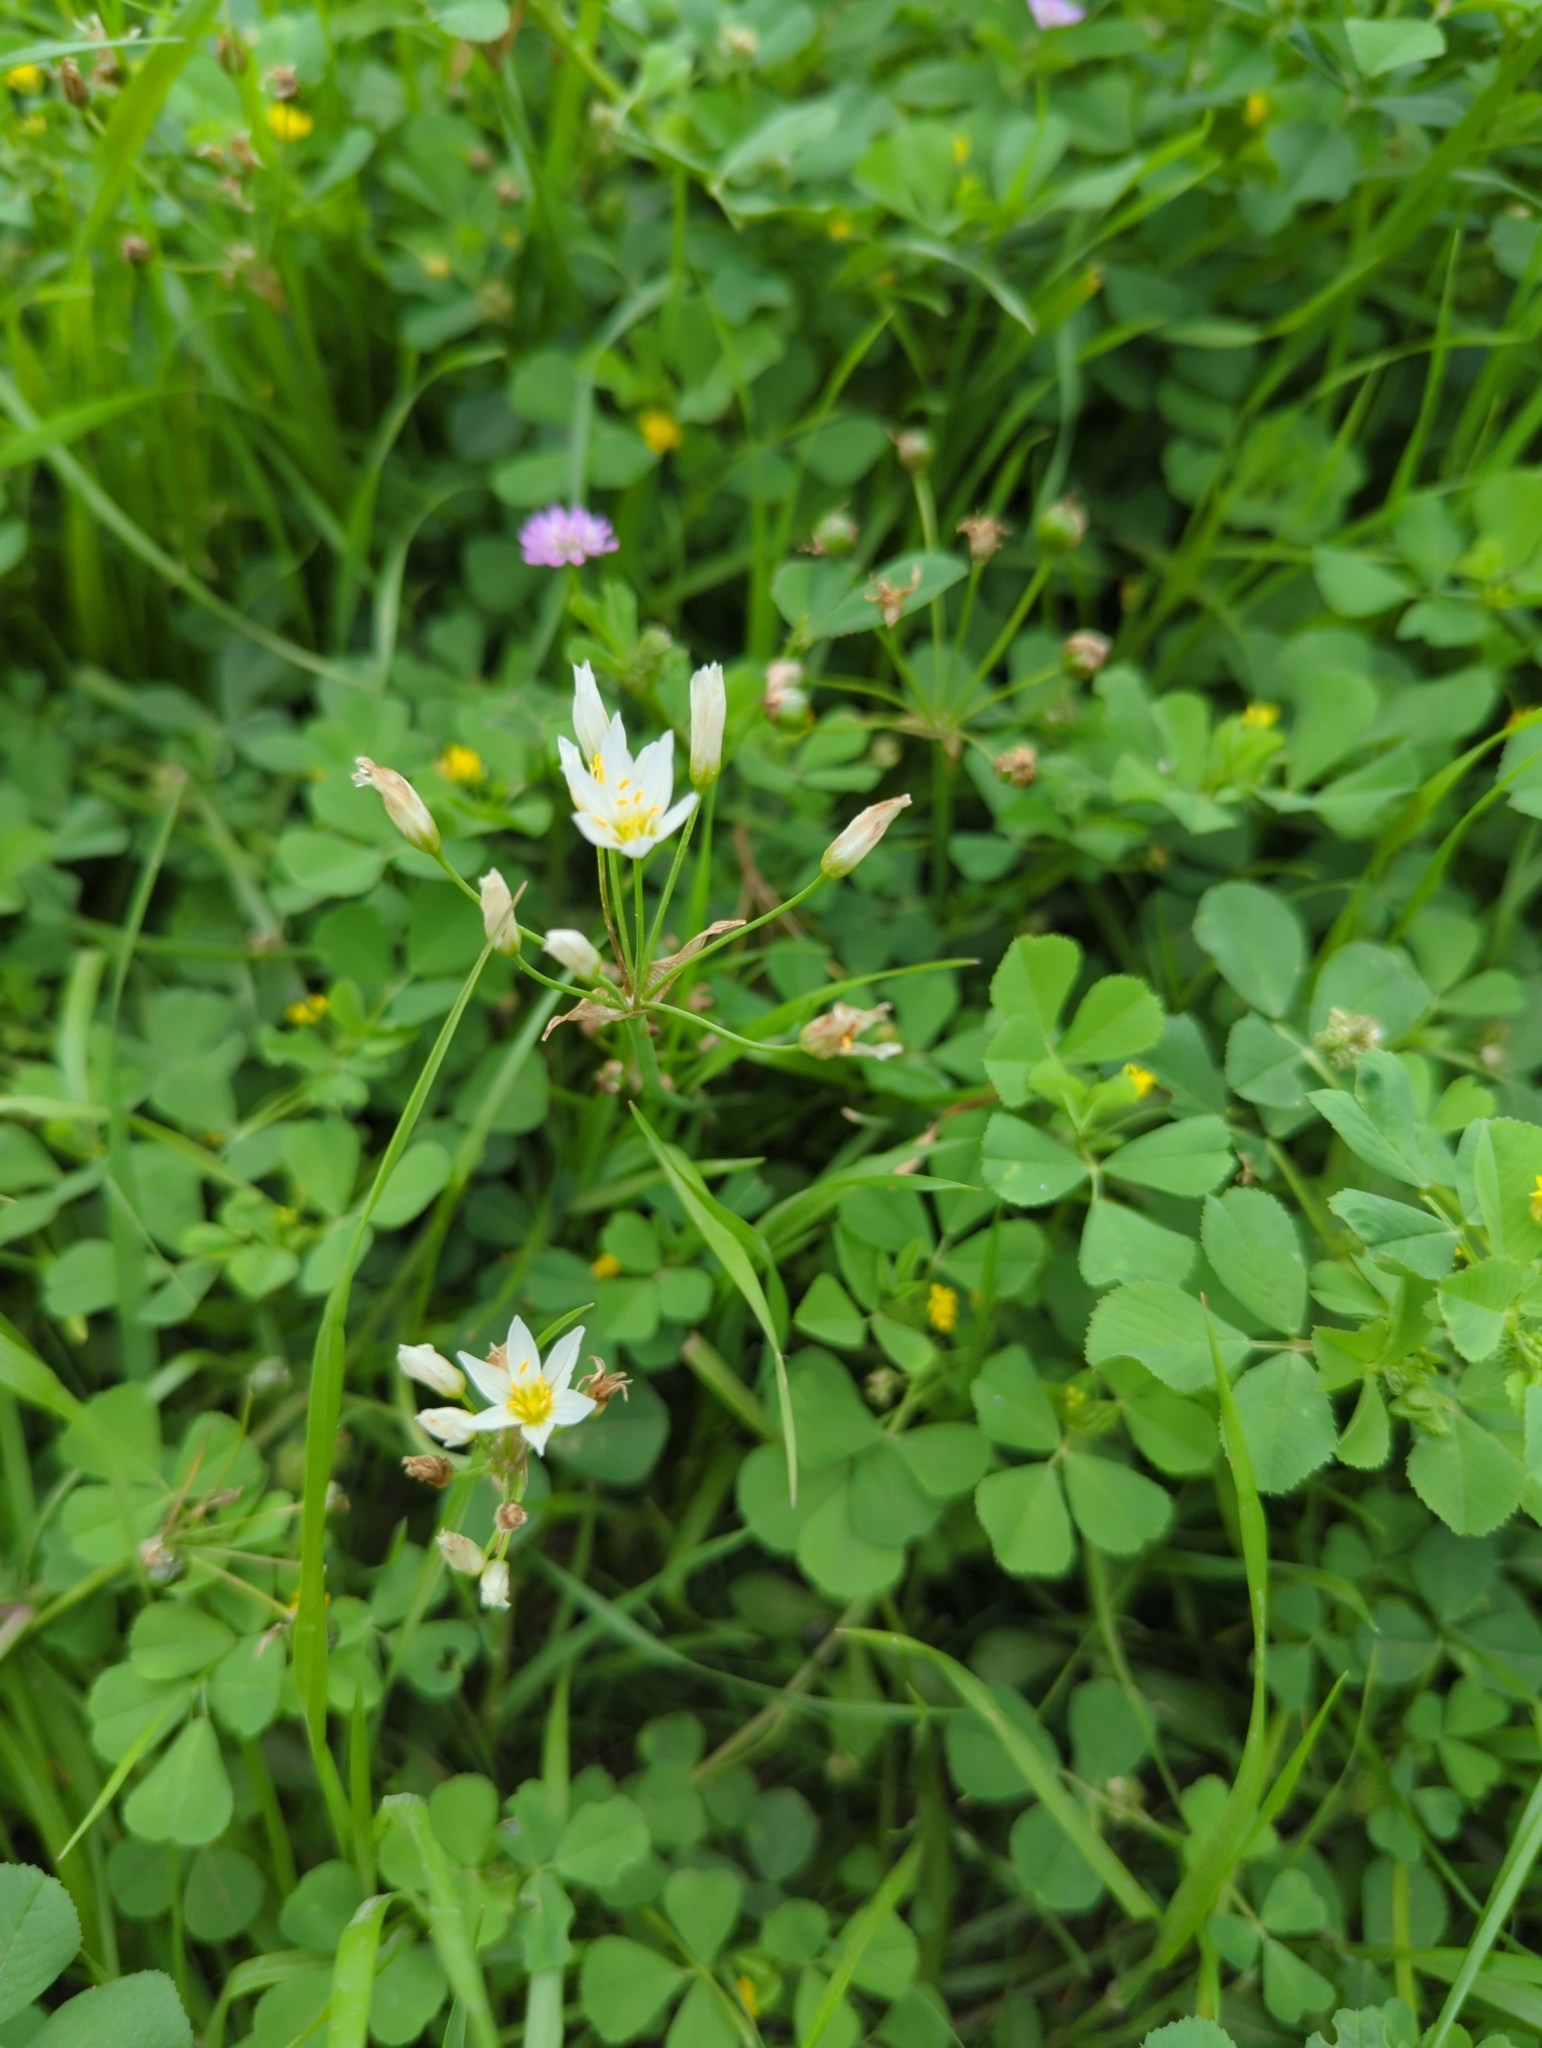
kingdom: Plantae
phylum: Tracheophyta
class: Liliopsida
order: Asparagales
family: Amaryllidaceae
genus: Nothoscordum
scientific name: Nothoscordum bivalve
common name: Crow-poison
